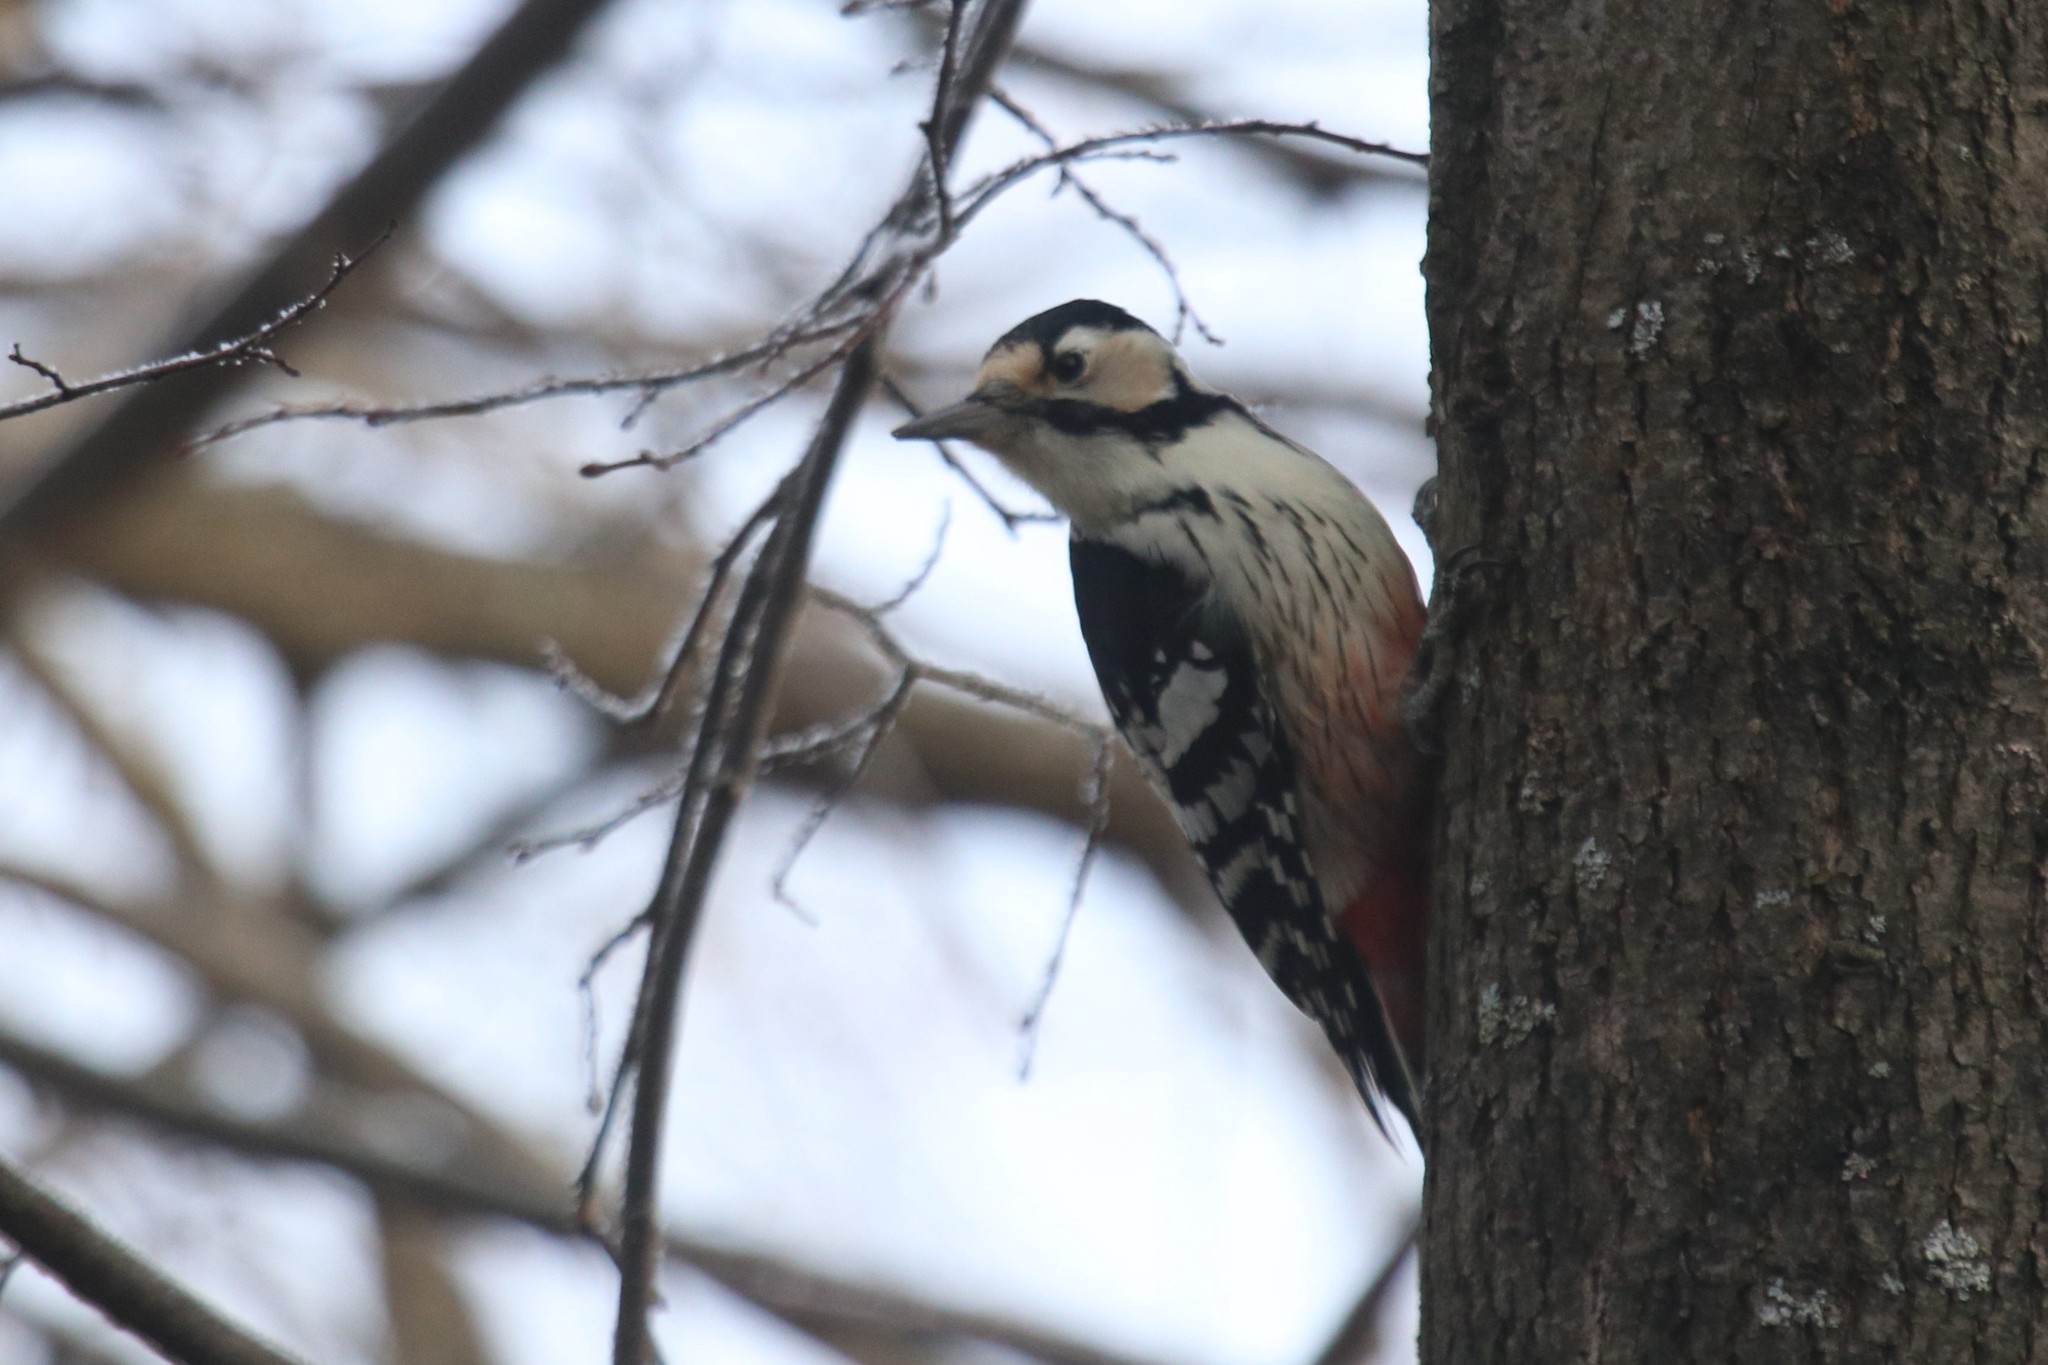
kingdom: Animalia
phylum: Chordata
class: Aves
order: Piciformes
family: Picidae
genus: Dendrocopos
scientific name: Dendrocopos leucotos
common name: White-backed woodpecker
